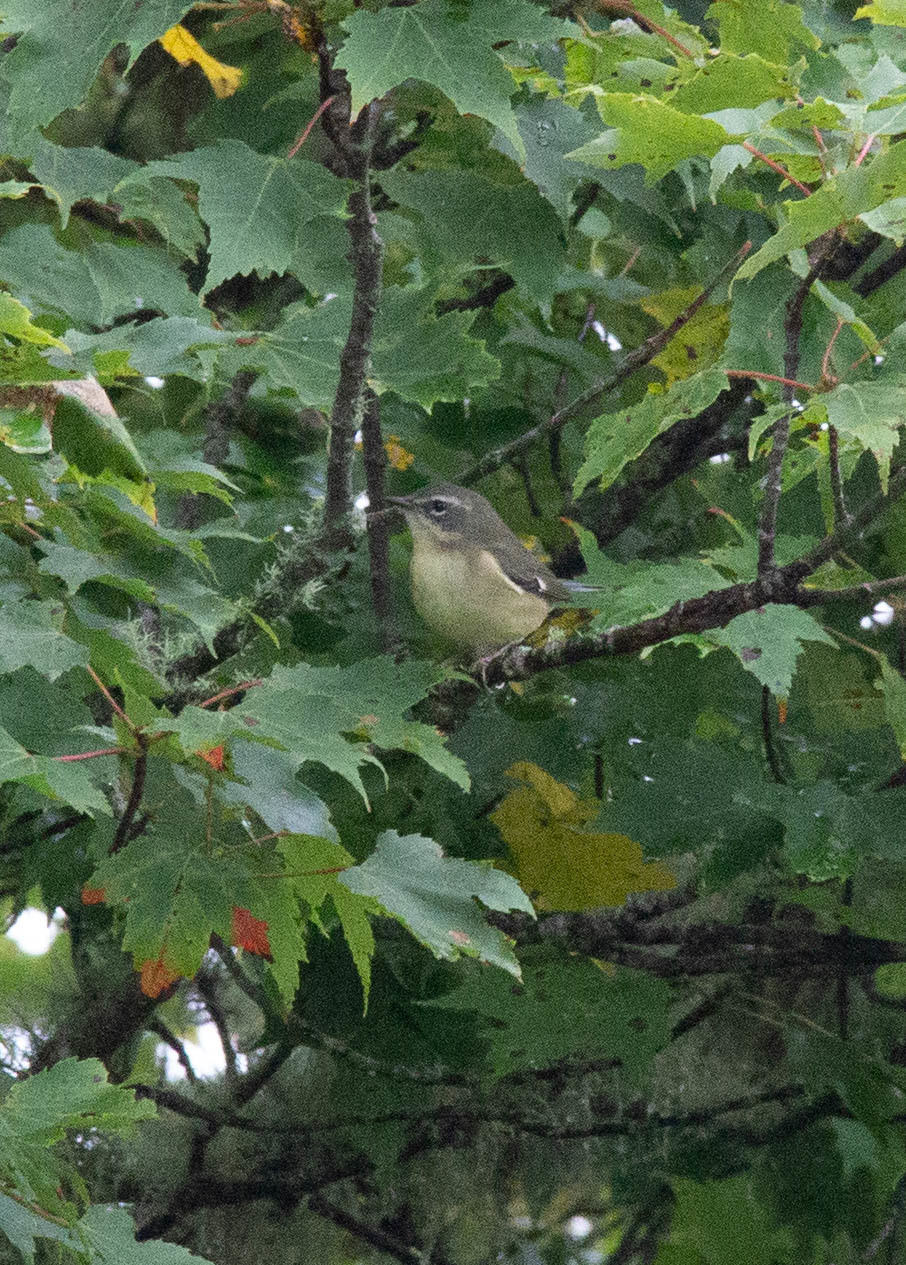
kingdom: Animalia
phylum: Chordata
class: Aves
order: Passeriformes
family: Parulidae
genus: Setophaga
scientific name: Setophaga caerulescens
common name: Black-throated blue warbler
